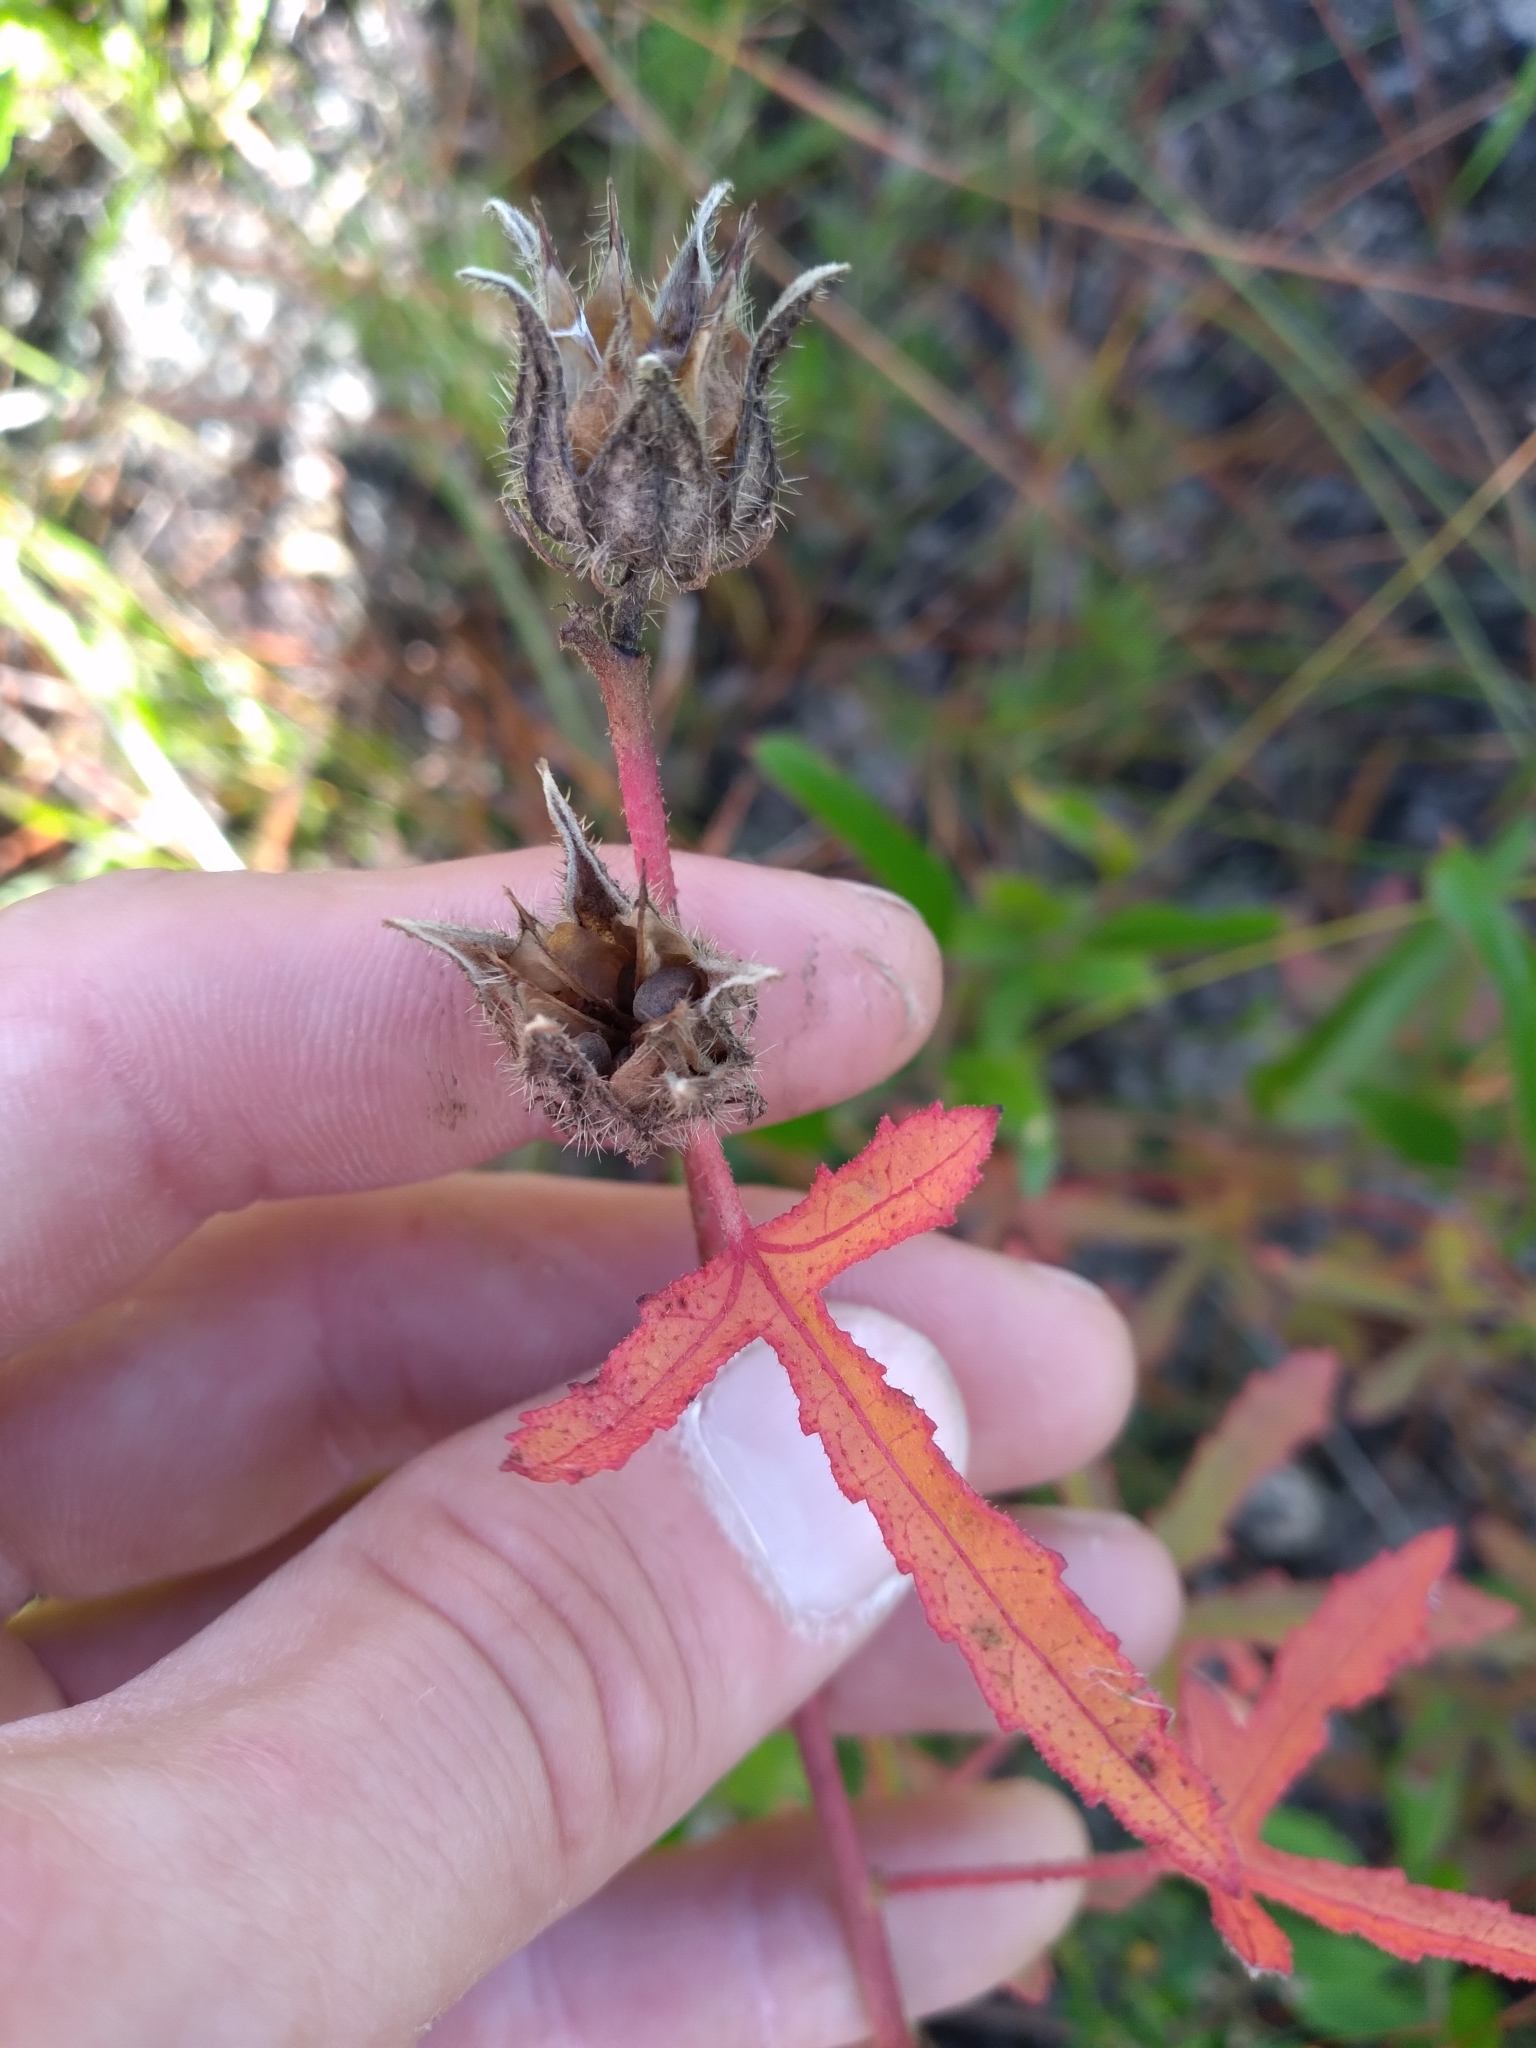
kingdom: Plantae
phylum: Tracheophyta
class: Magnoliopsida
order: Malvales
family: Malvaceae
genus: Hibiscus
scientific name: Hibiscus aculeatus
